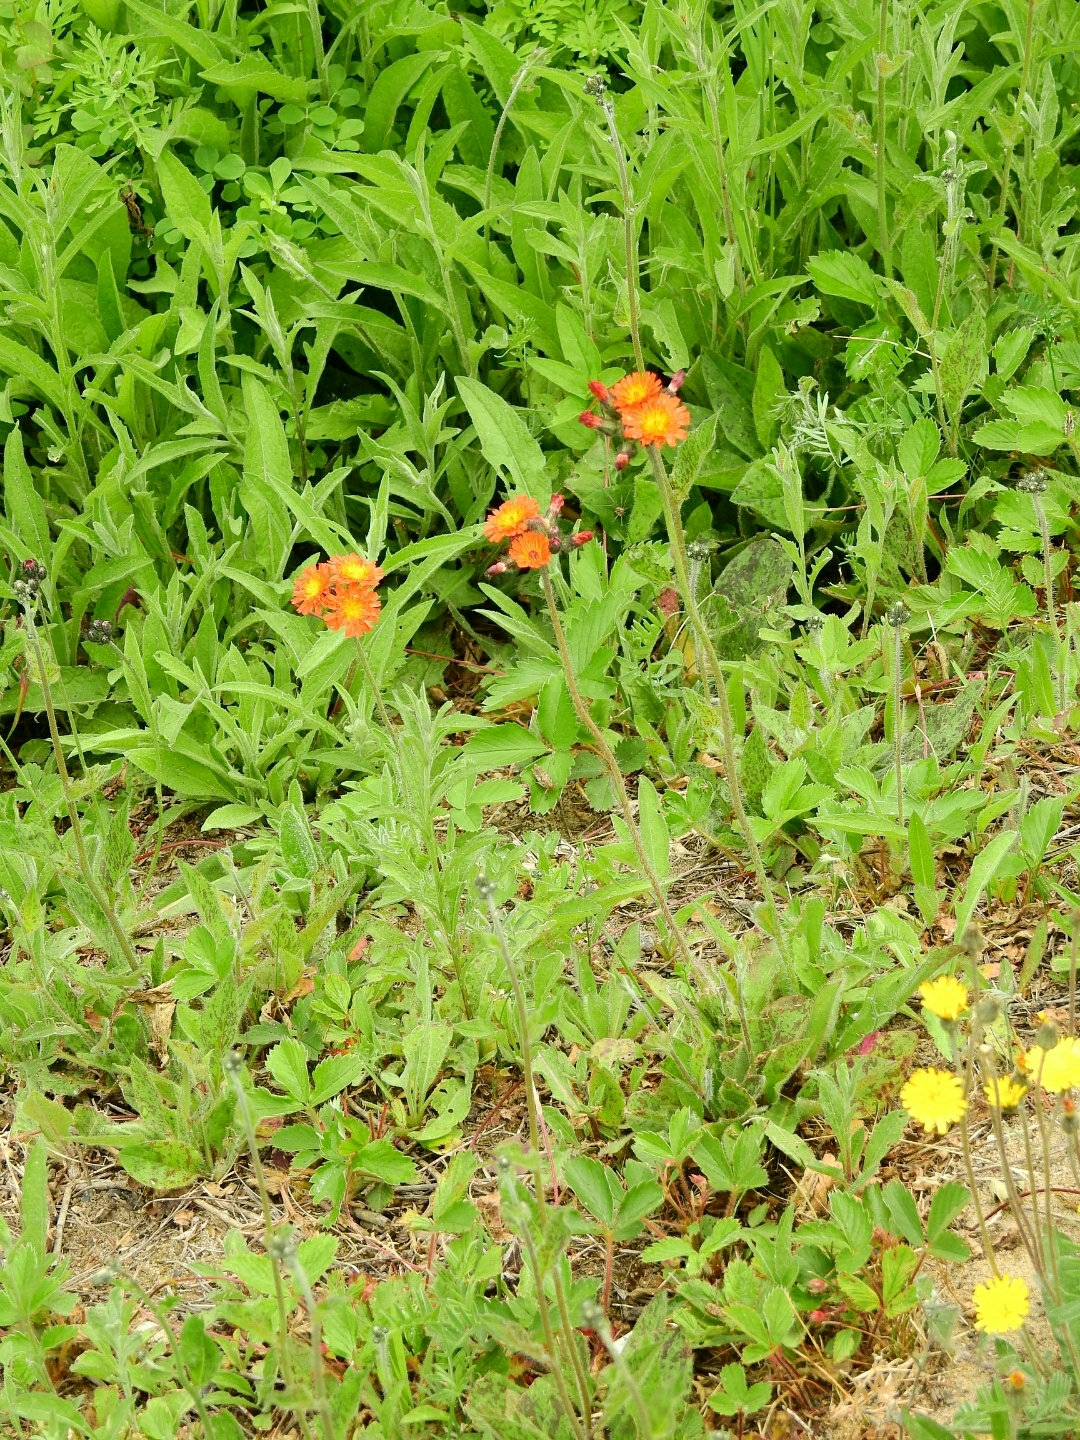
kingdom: Plantae
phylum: Tracheophyta
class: Magnoliopsida
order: Asterales
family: Asteraceae
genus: Pilosella
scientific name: Pilosella aurantiaca
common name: Fox-and-cubs
